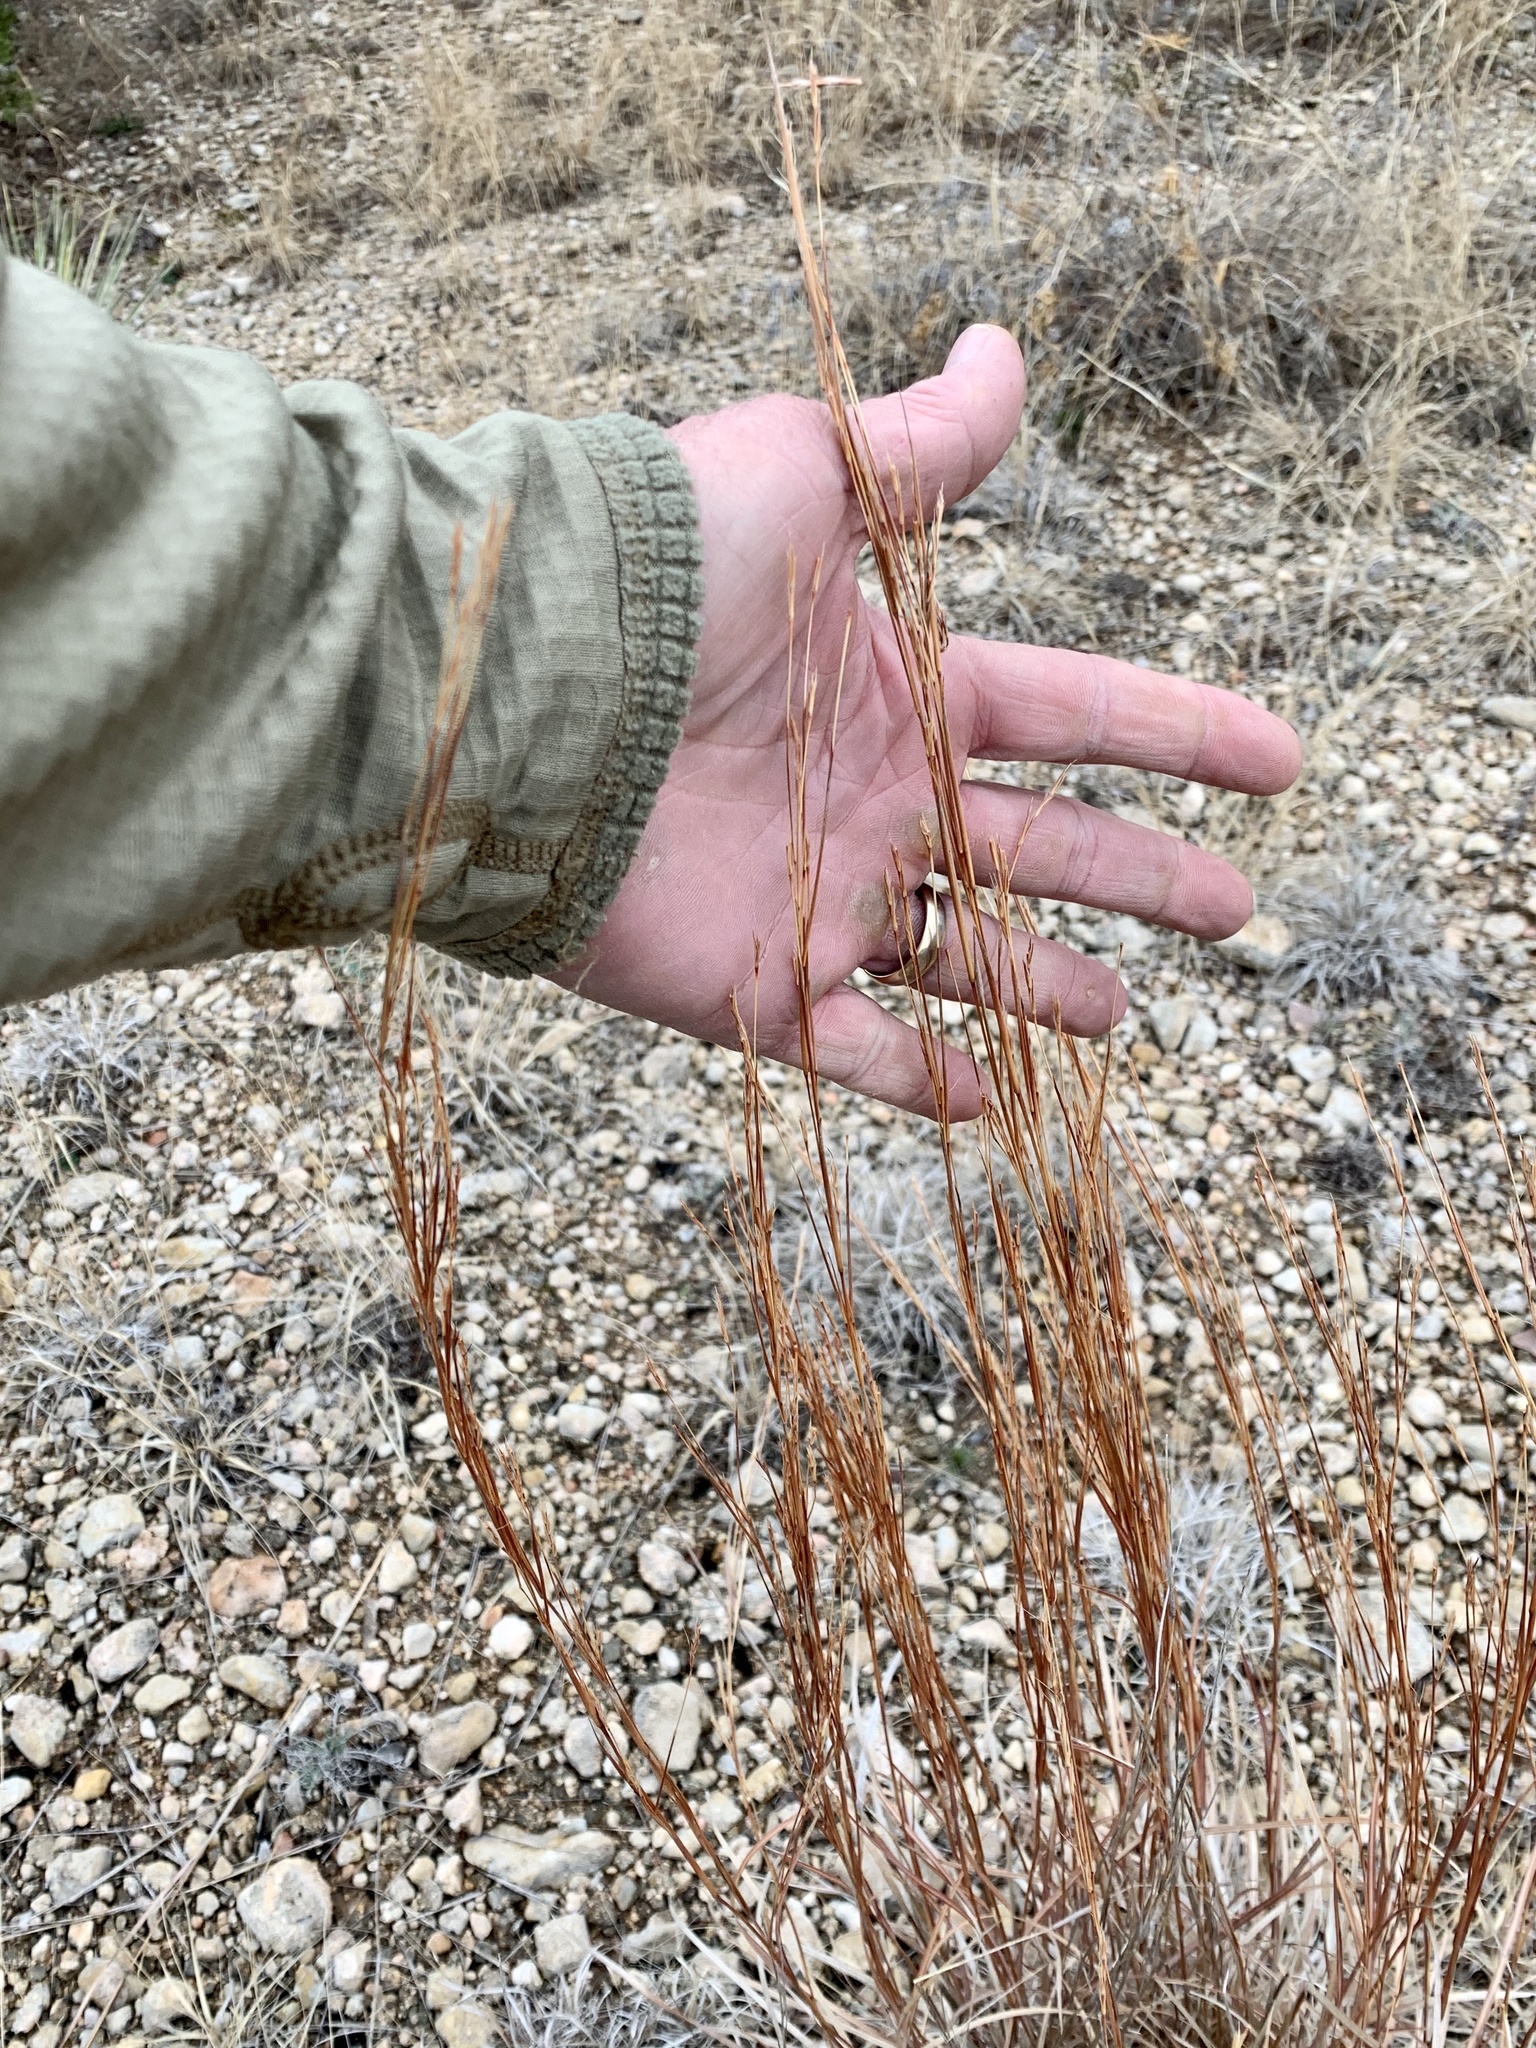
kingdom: Plantae
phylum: Tracheophyta
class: Liliopsida
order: Poales
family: Poaceae
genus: Schizachyrium
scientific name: Schizachyrium scoparium
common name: Little bluestem
